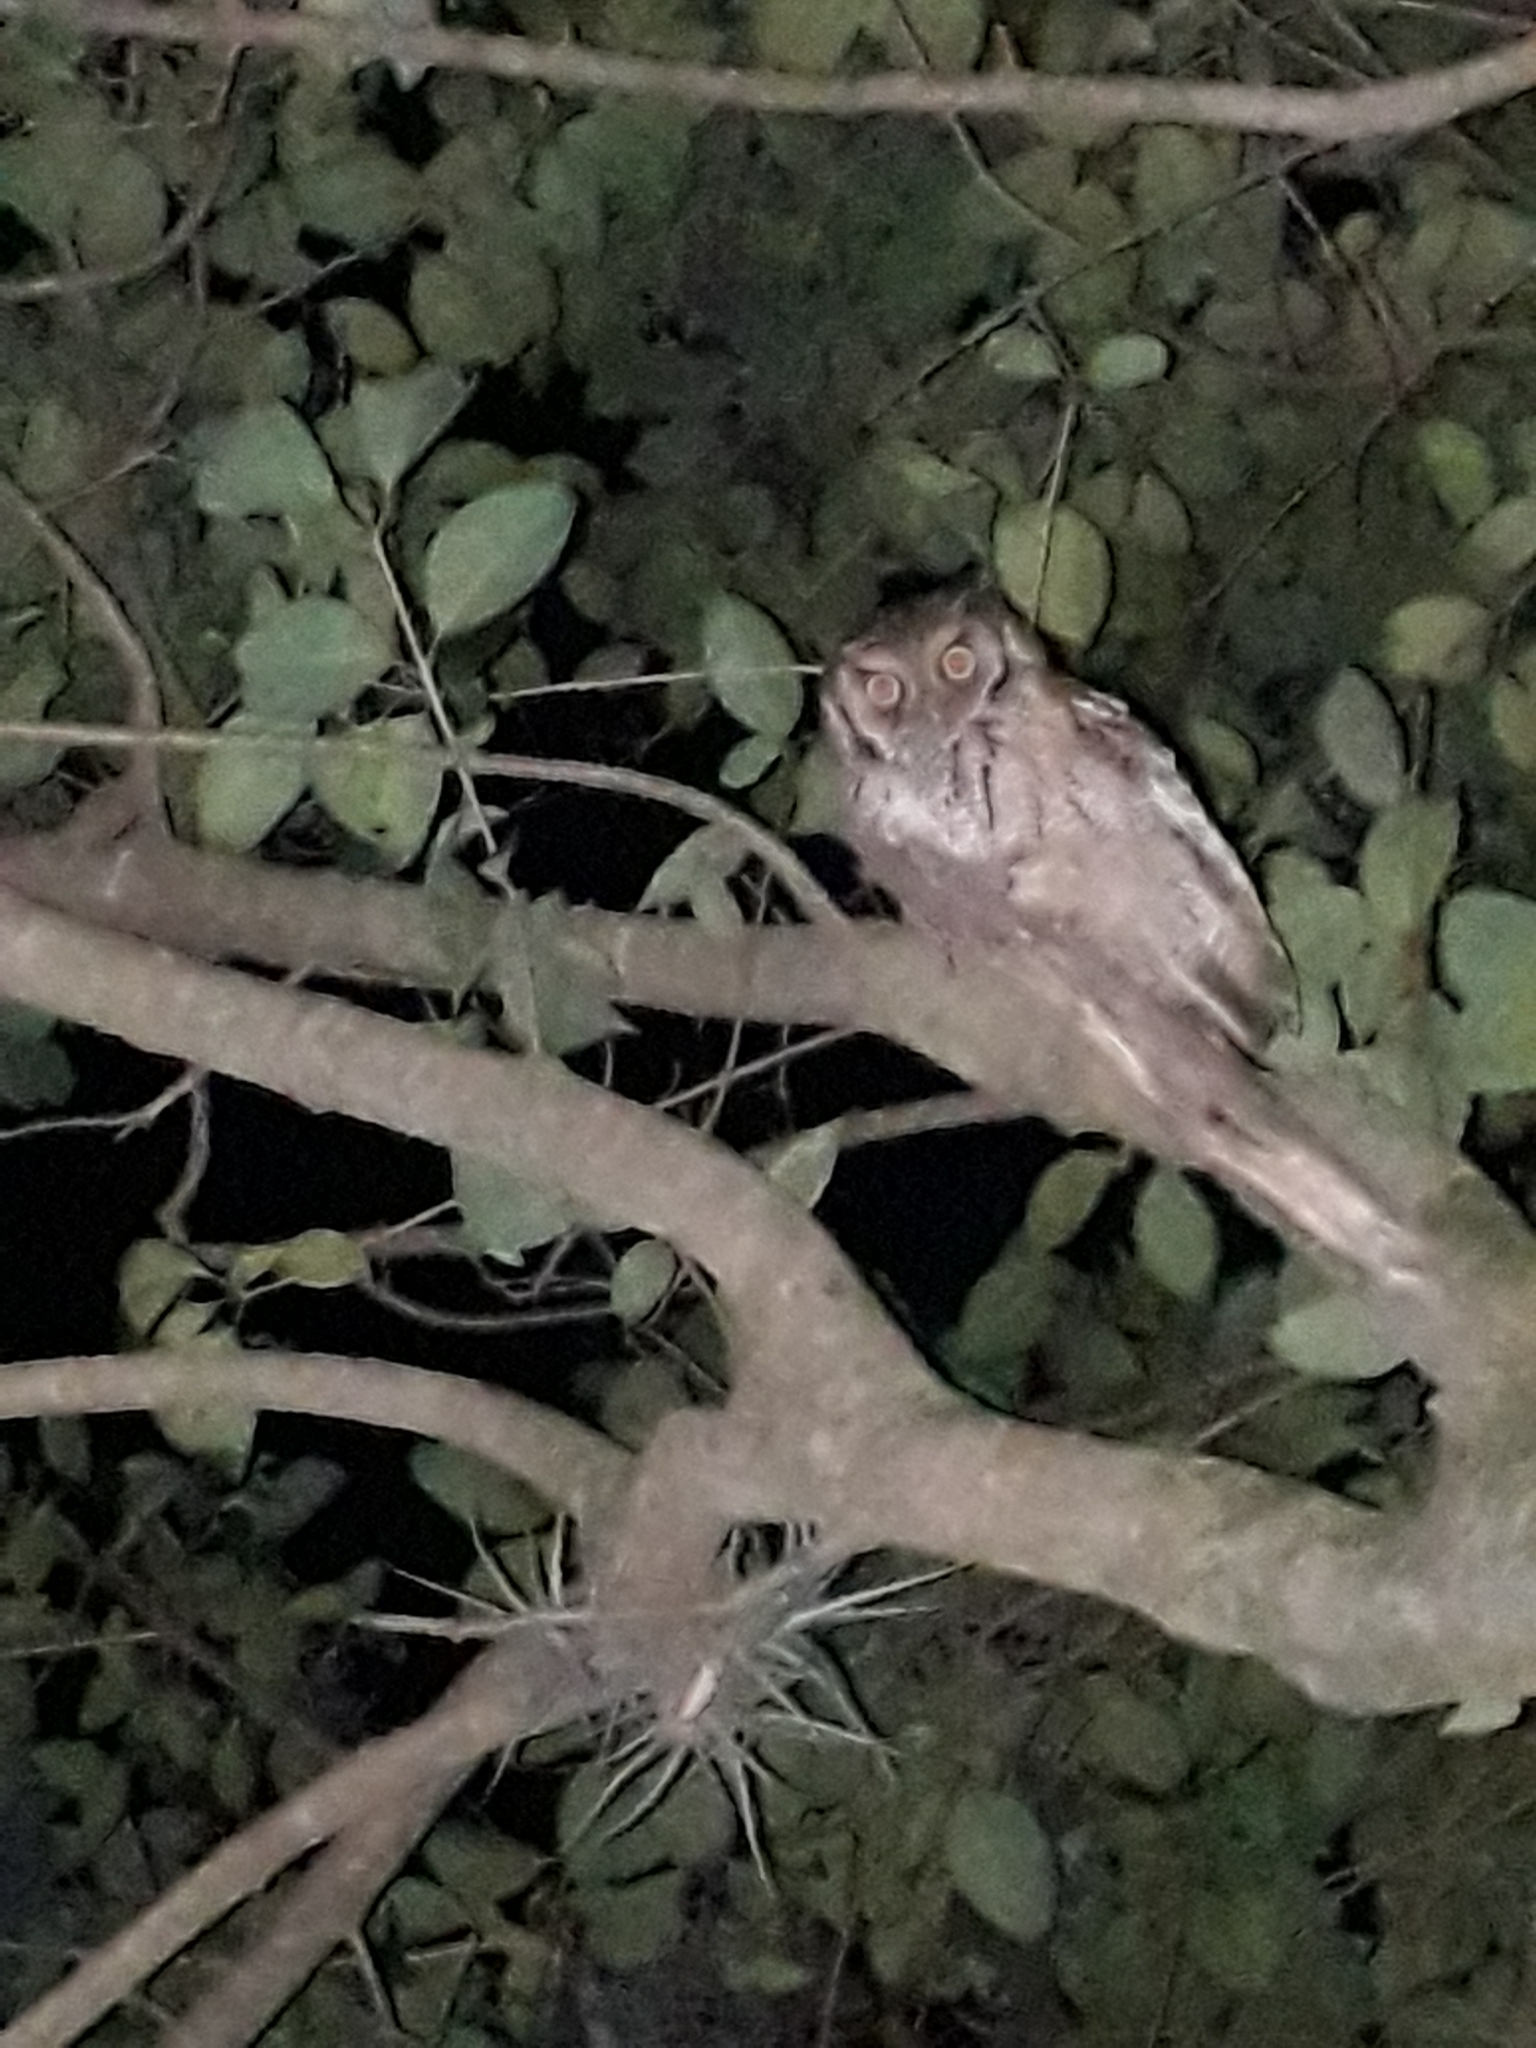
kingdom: Animalia
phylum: Chordata
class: Aves
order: Strigiformes
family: Strigidae
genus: Megascops
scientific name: Megascops choliba
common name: Tropical screech-owl
